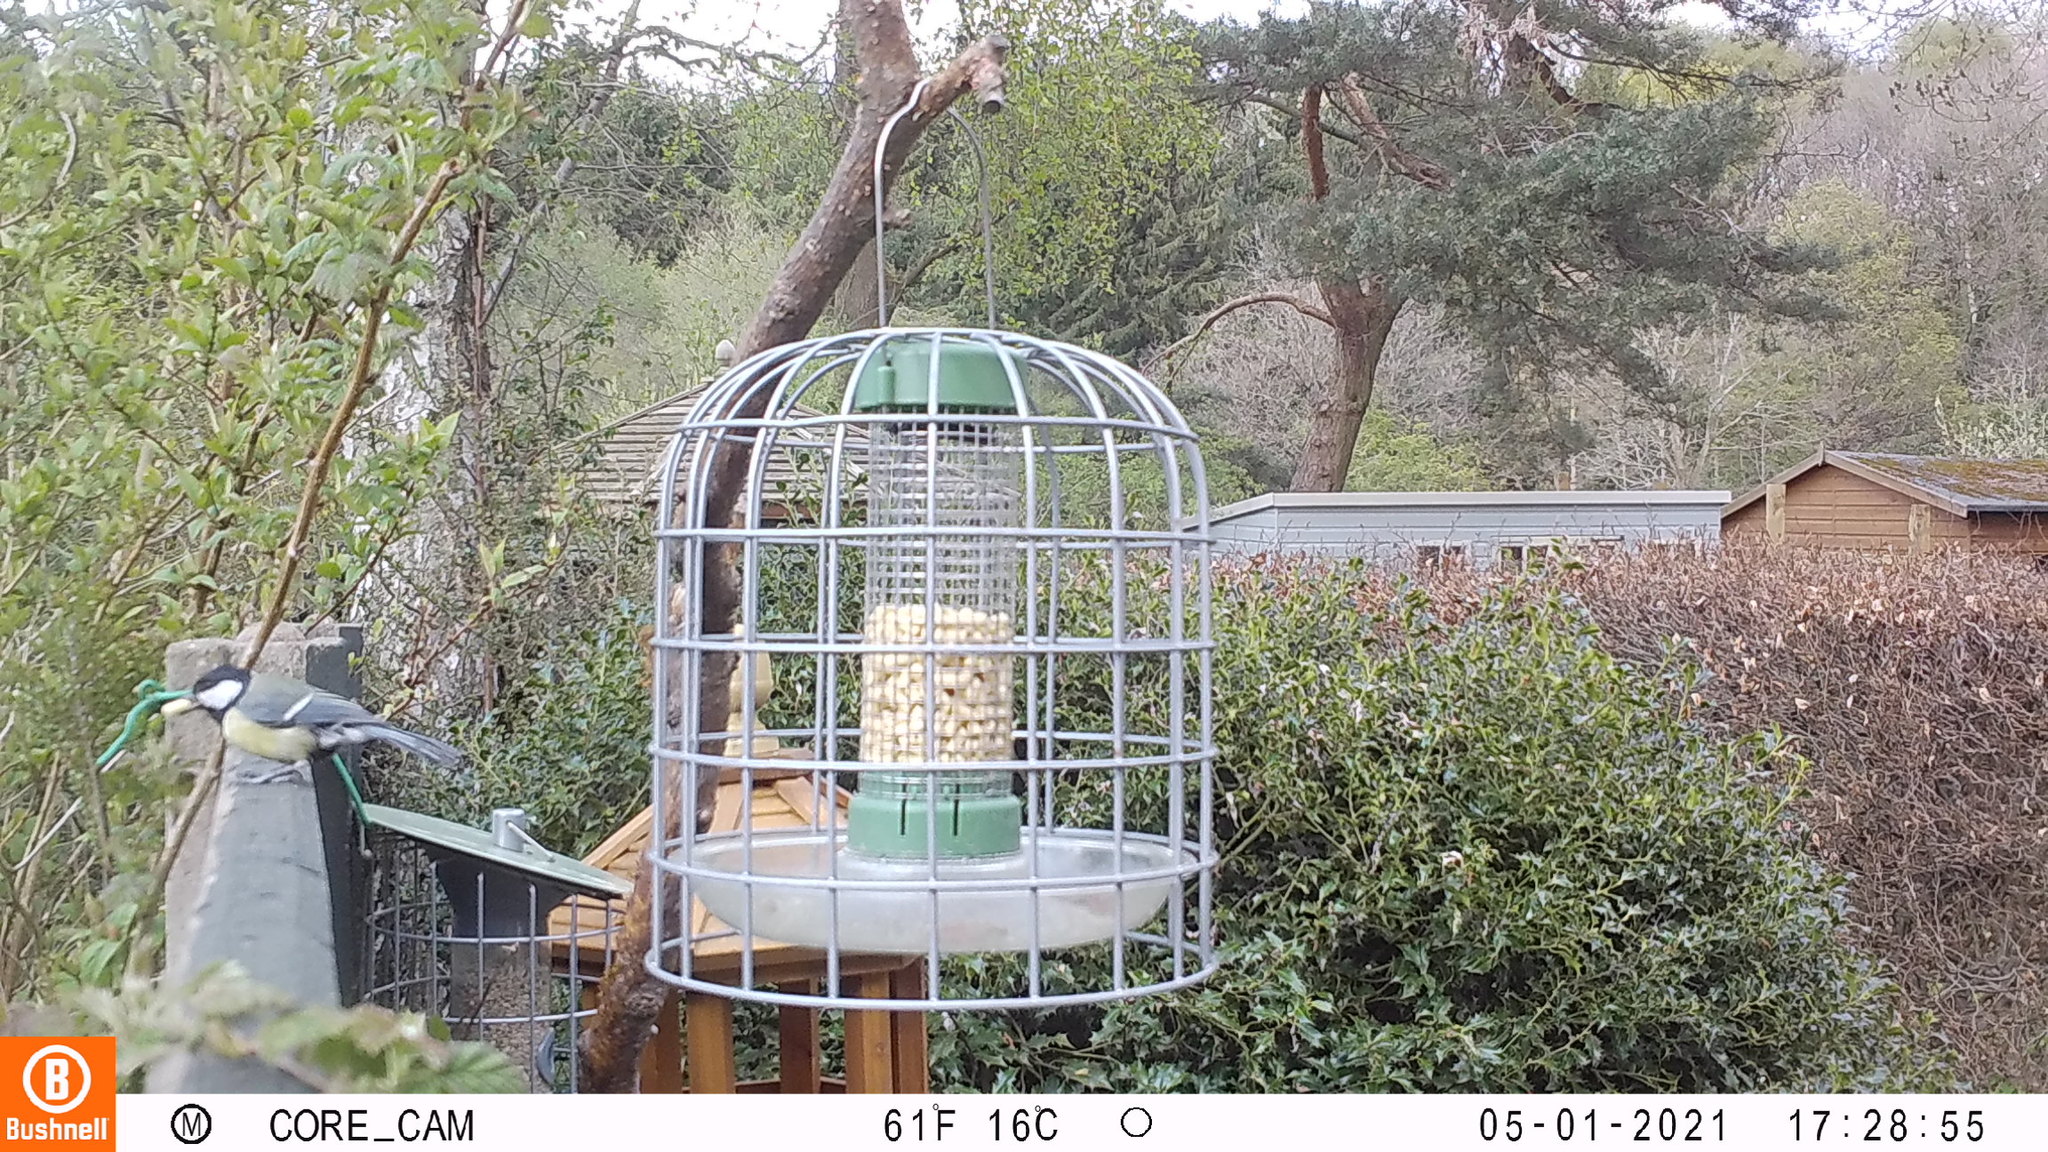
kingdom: Animalia
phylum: Chordata
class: Aves
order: Passeriformes
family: Paridae
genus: Parus
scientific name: Parus major
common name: Great tit
